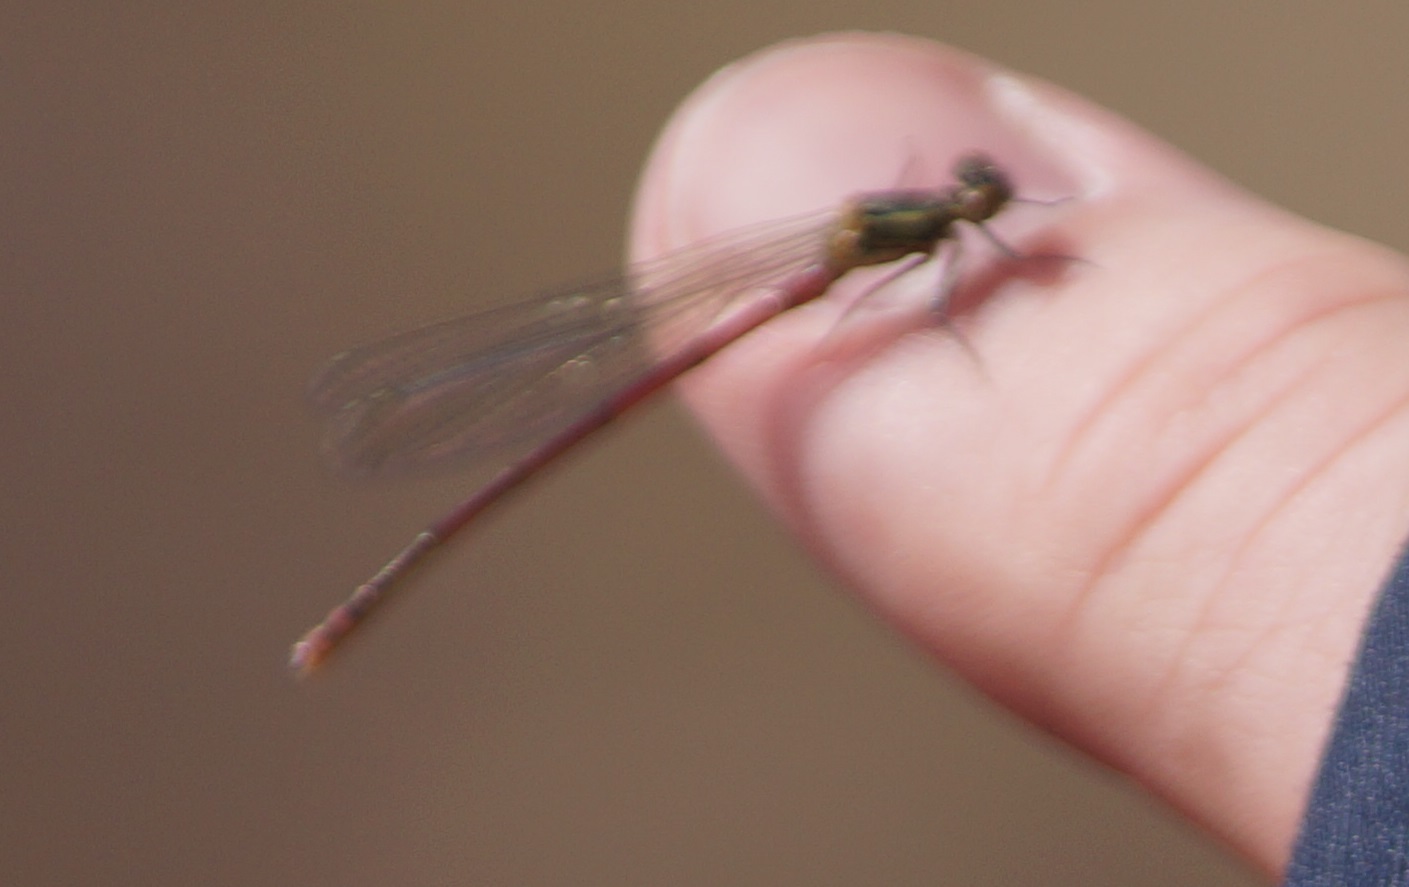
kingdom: Animalia
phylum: Arthropoda
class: Insecta
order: Odonata
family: Coenagrionidae
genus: Pyrrhosoma
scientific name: Pyrrhosoma nymphula
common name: Large red damsel
